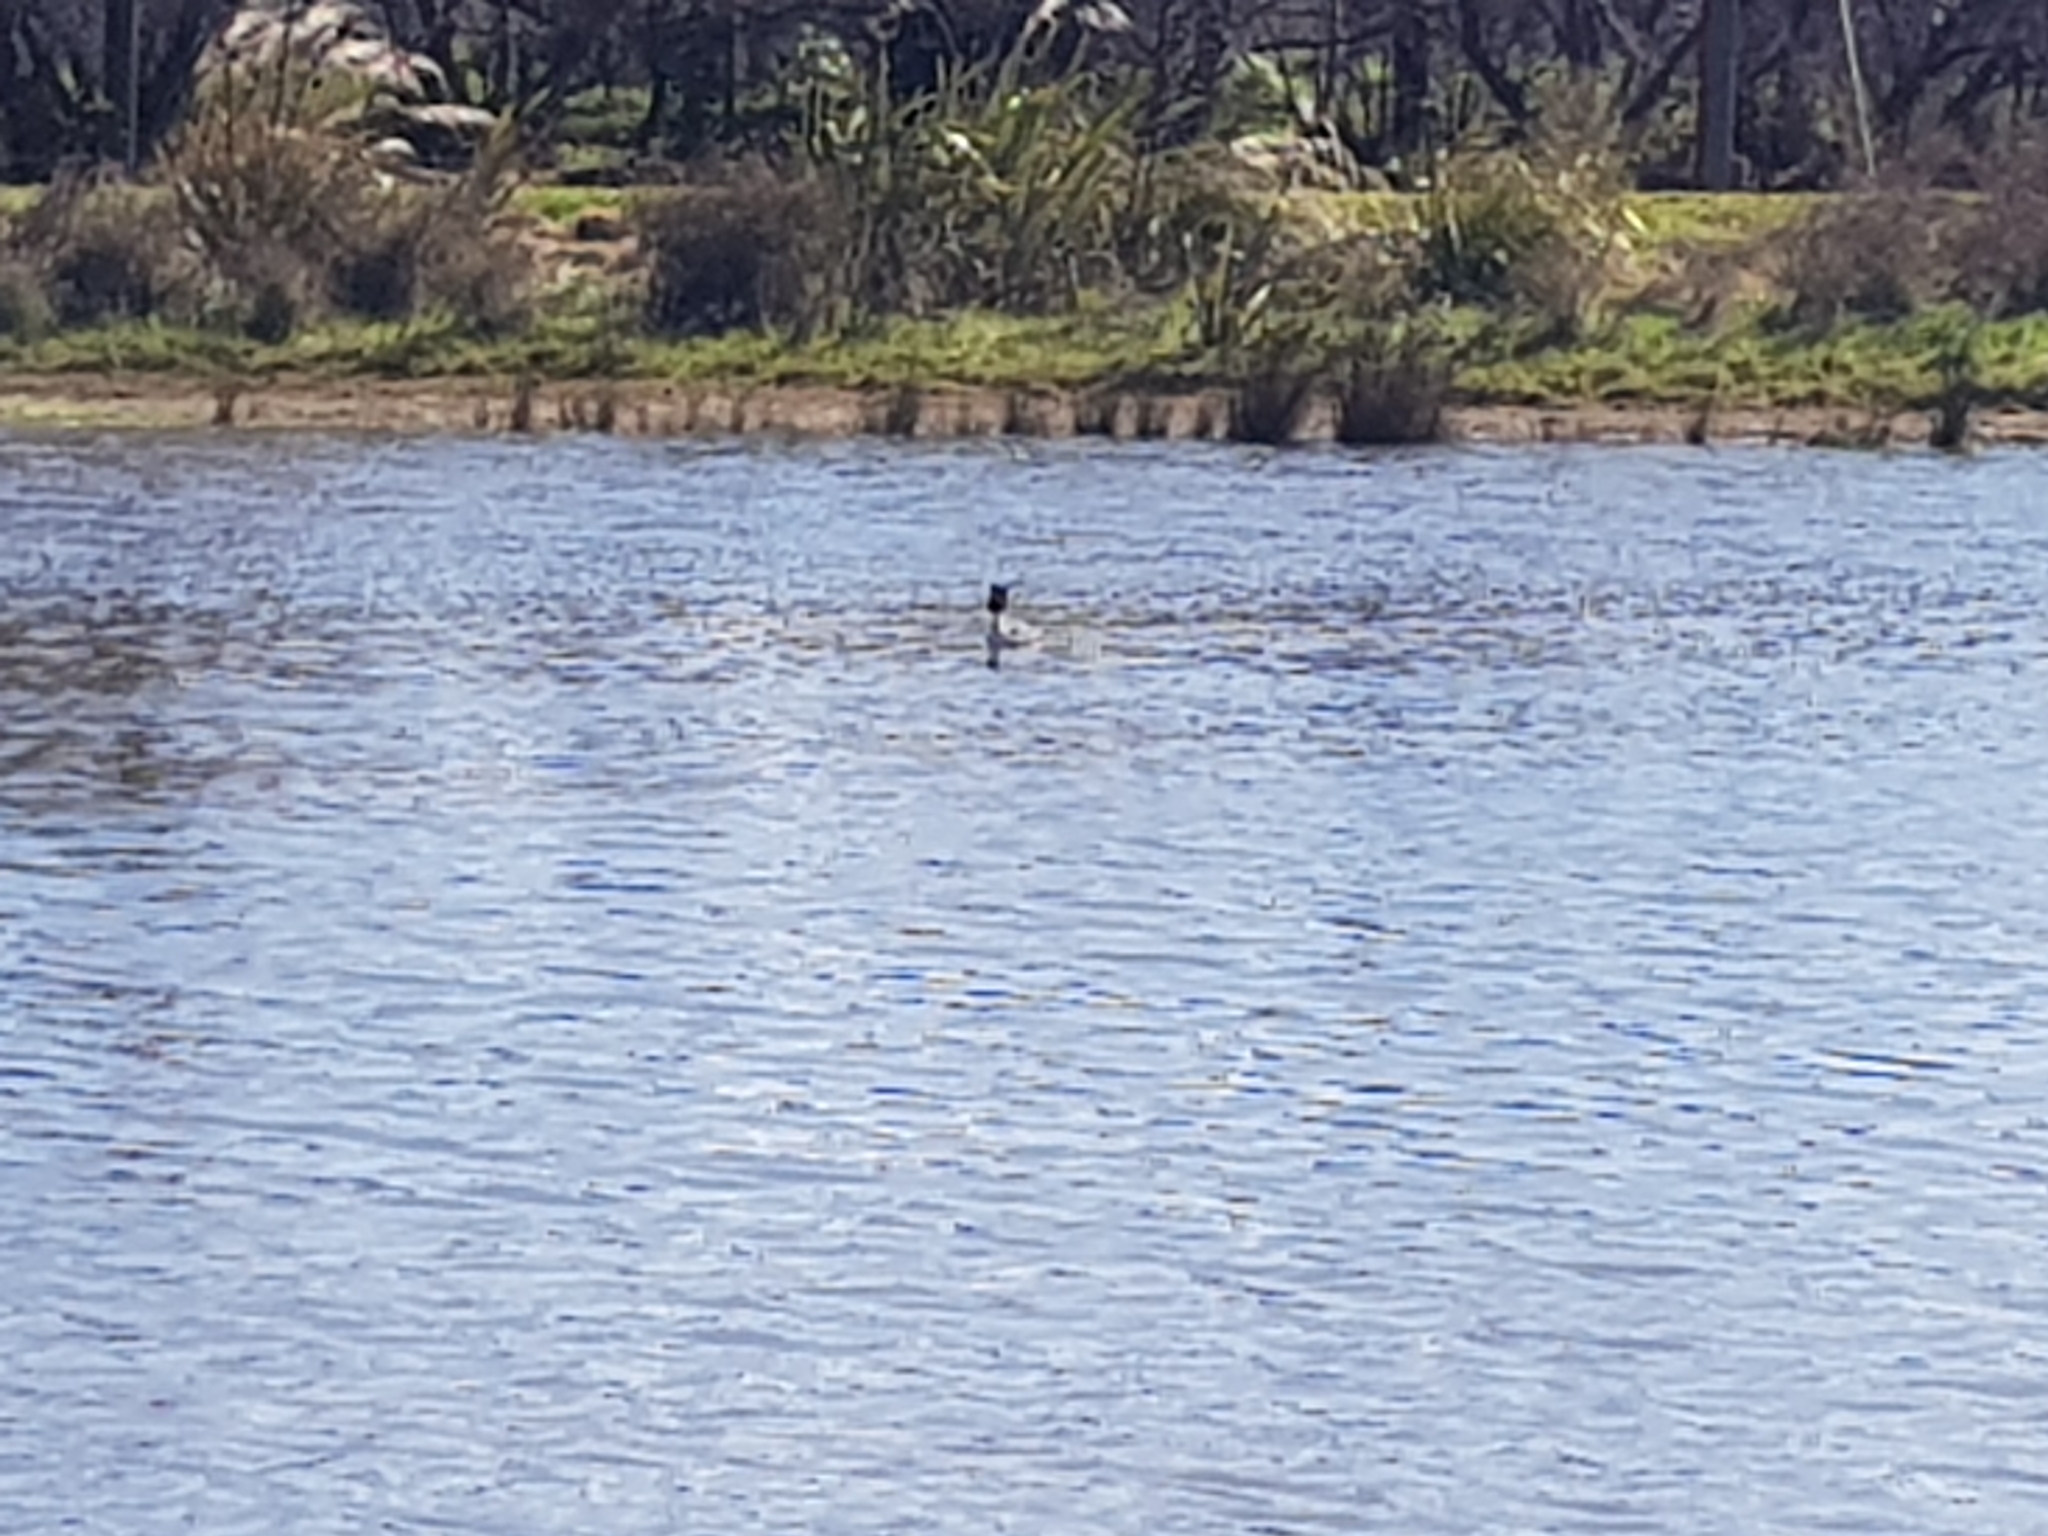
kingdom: Animalia
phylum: Chordata
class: Aves
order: Podicipediformes
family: Podicipedidae
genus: Podiceps
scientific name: Podiceps cristatus
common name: Great crested grebe
